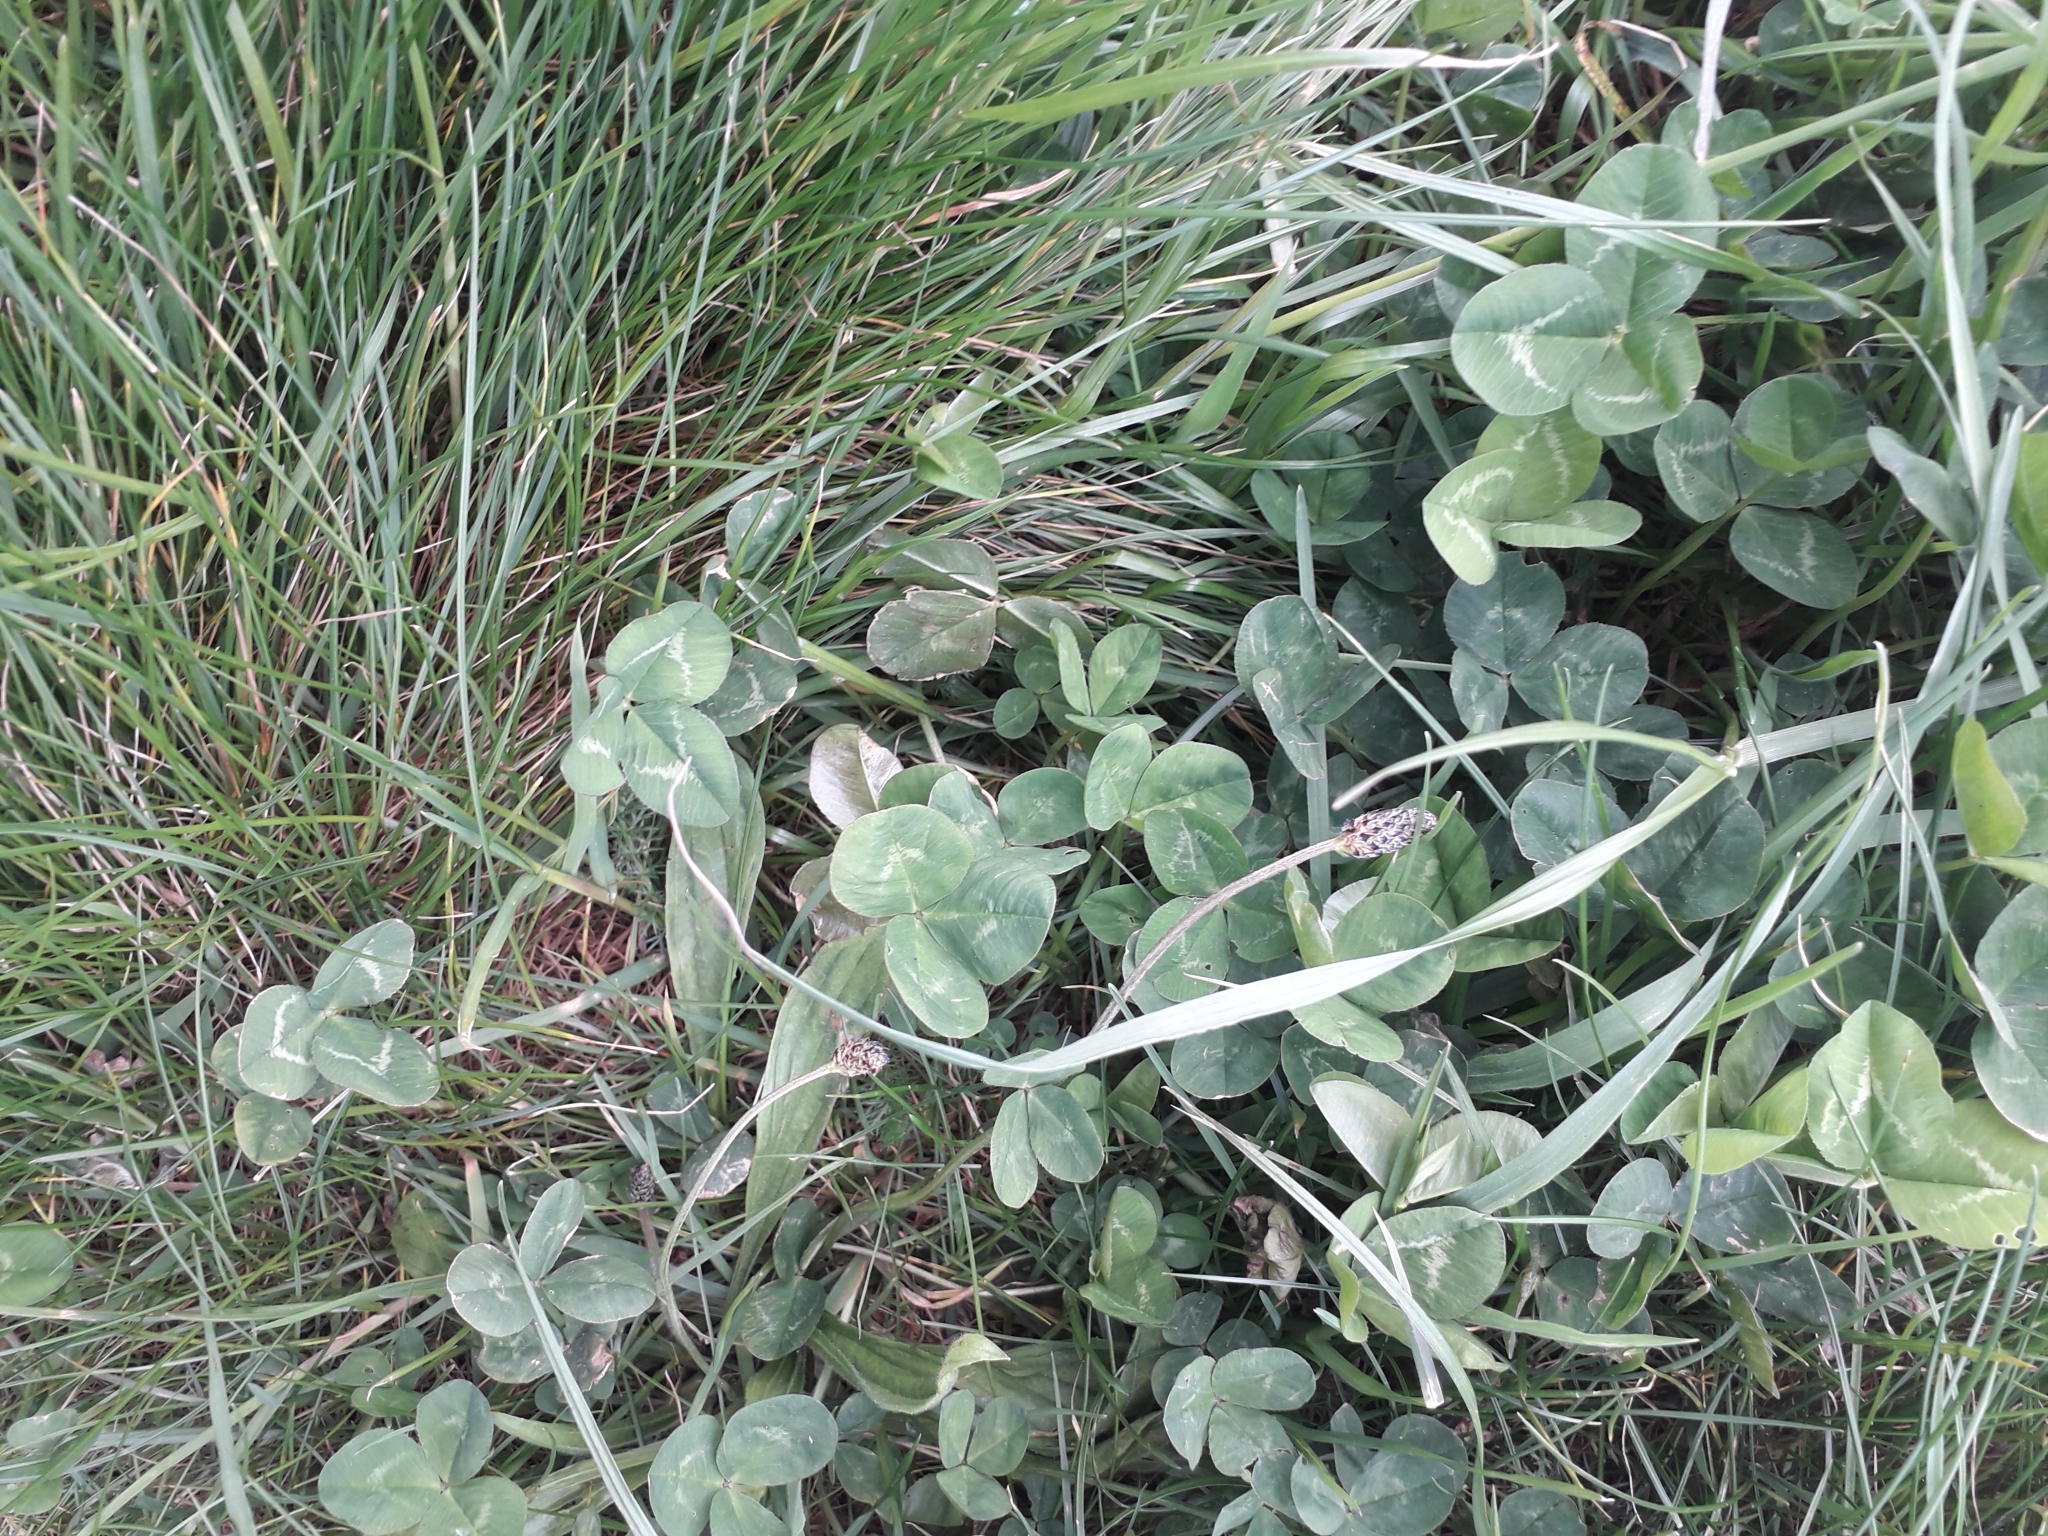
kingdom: Plantae
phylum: Tracheophyta
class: Magnoliopsida
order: Fabales
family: Fabaceae
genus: Trifolium
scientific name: Trifolium repens
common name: White clover
